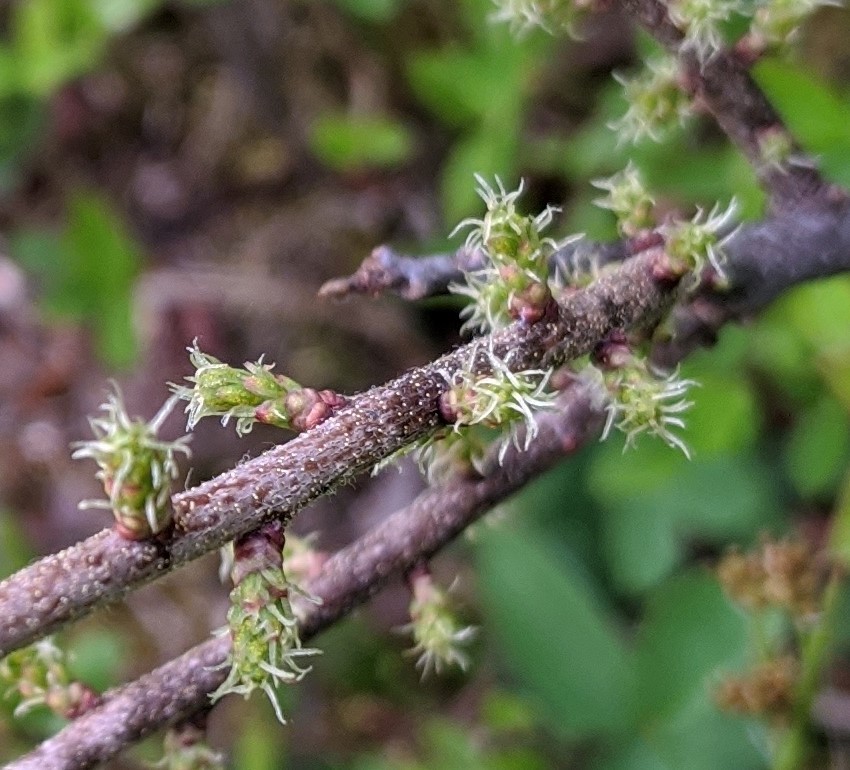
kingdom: Plantae
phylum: Tracheophyta
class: Magnoliopsida
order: Fagales
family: Myricaceae
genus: Morella
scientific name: Morella pensylvanica
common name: Northern bayberry
